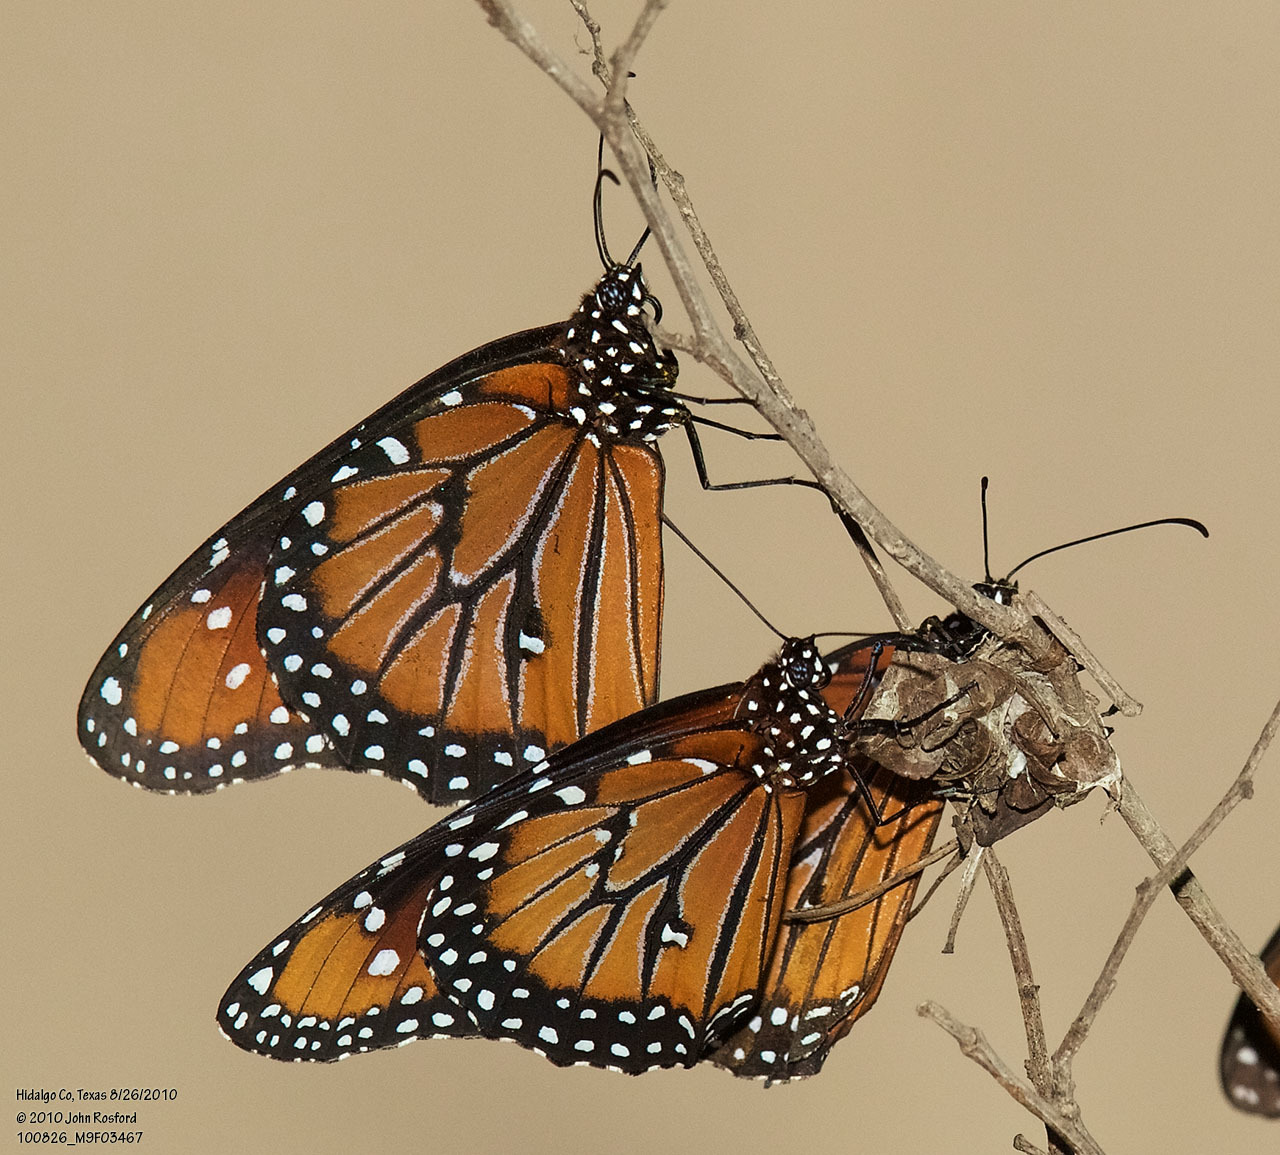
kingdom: Animalia
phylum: Arthropoda
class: Insecta
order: Lepidoptera
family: Nymphalidae
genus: Danaus
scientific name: Danaus gilippus
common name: Queen
